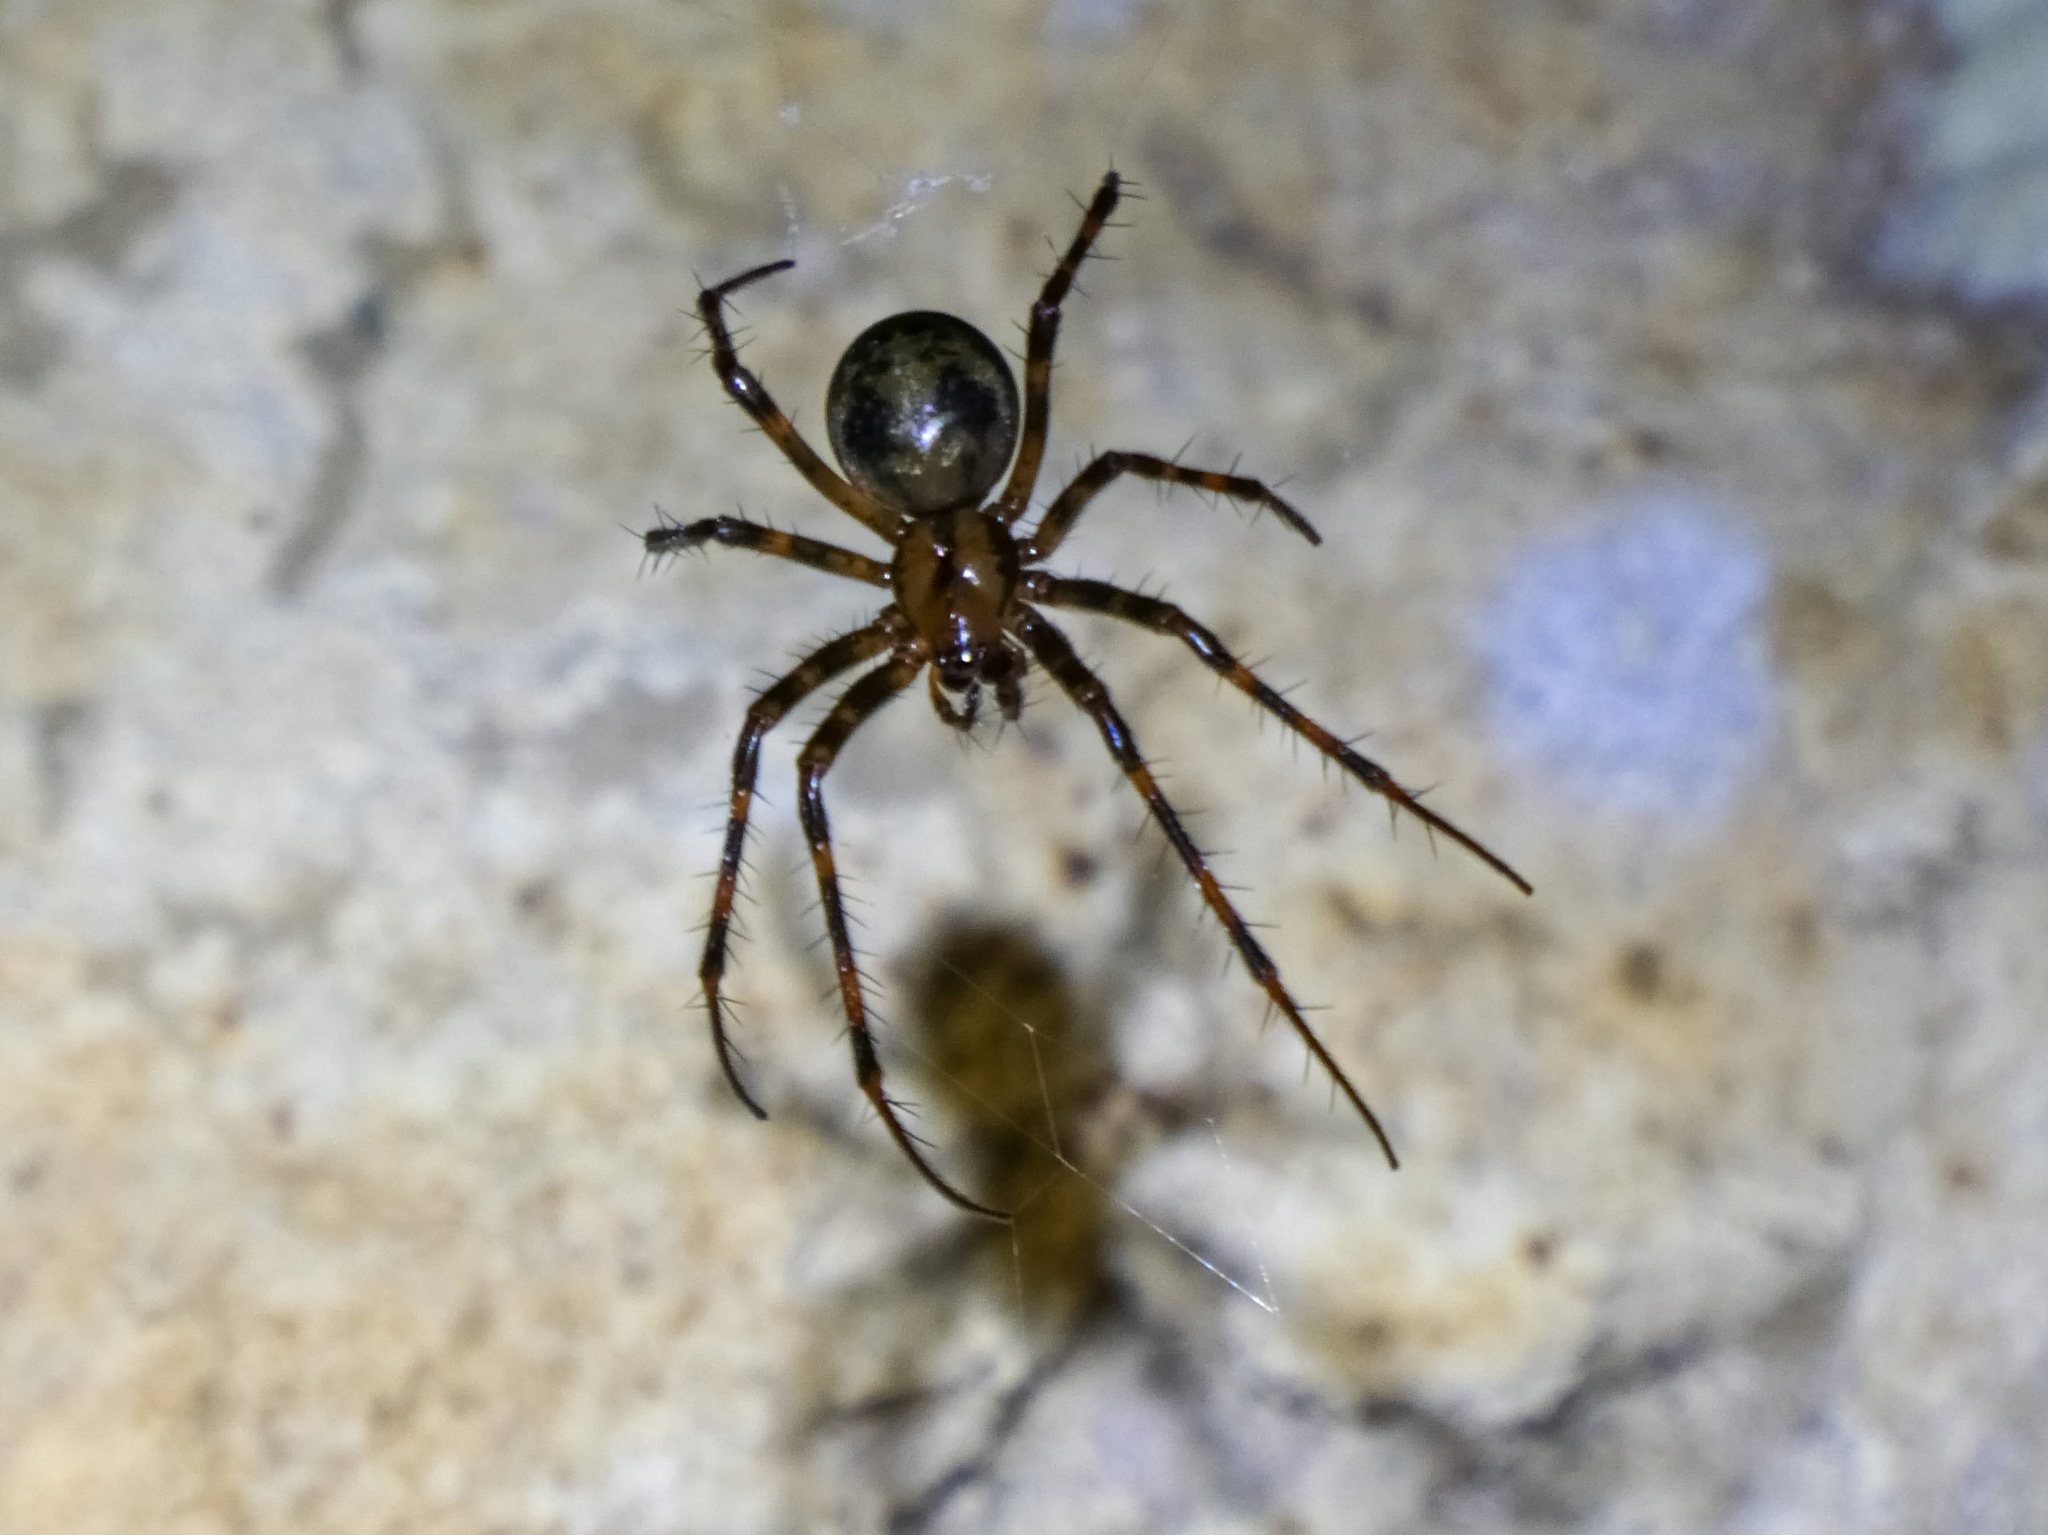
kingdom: Animalia
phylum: Arthropoda
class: Arachnida
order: Araneae
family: Tetragnathidae
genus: Meta
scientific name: Meta menardi
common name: Cave spider
